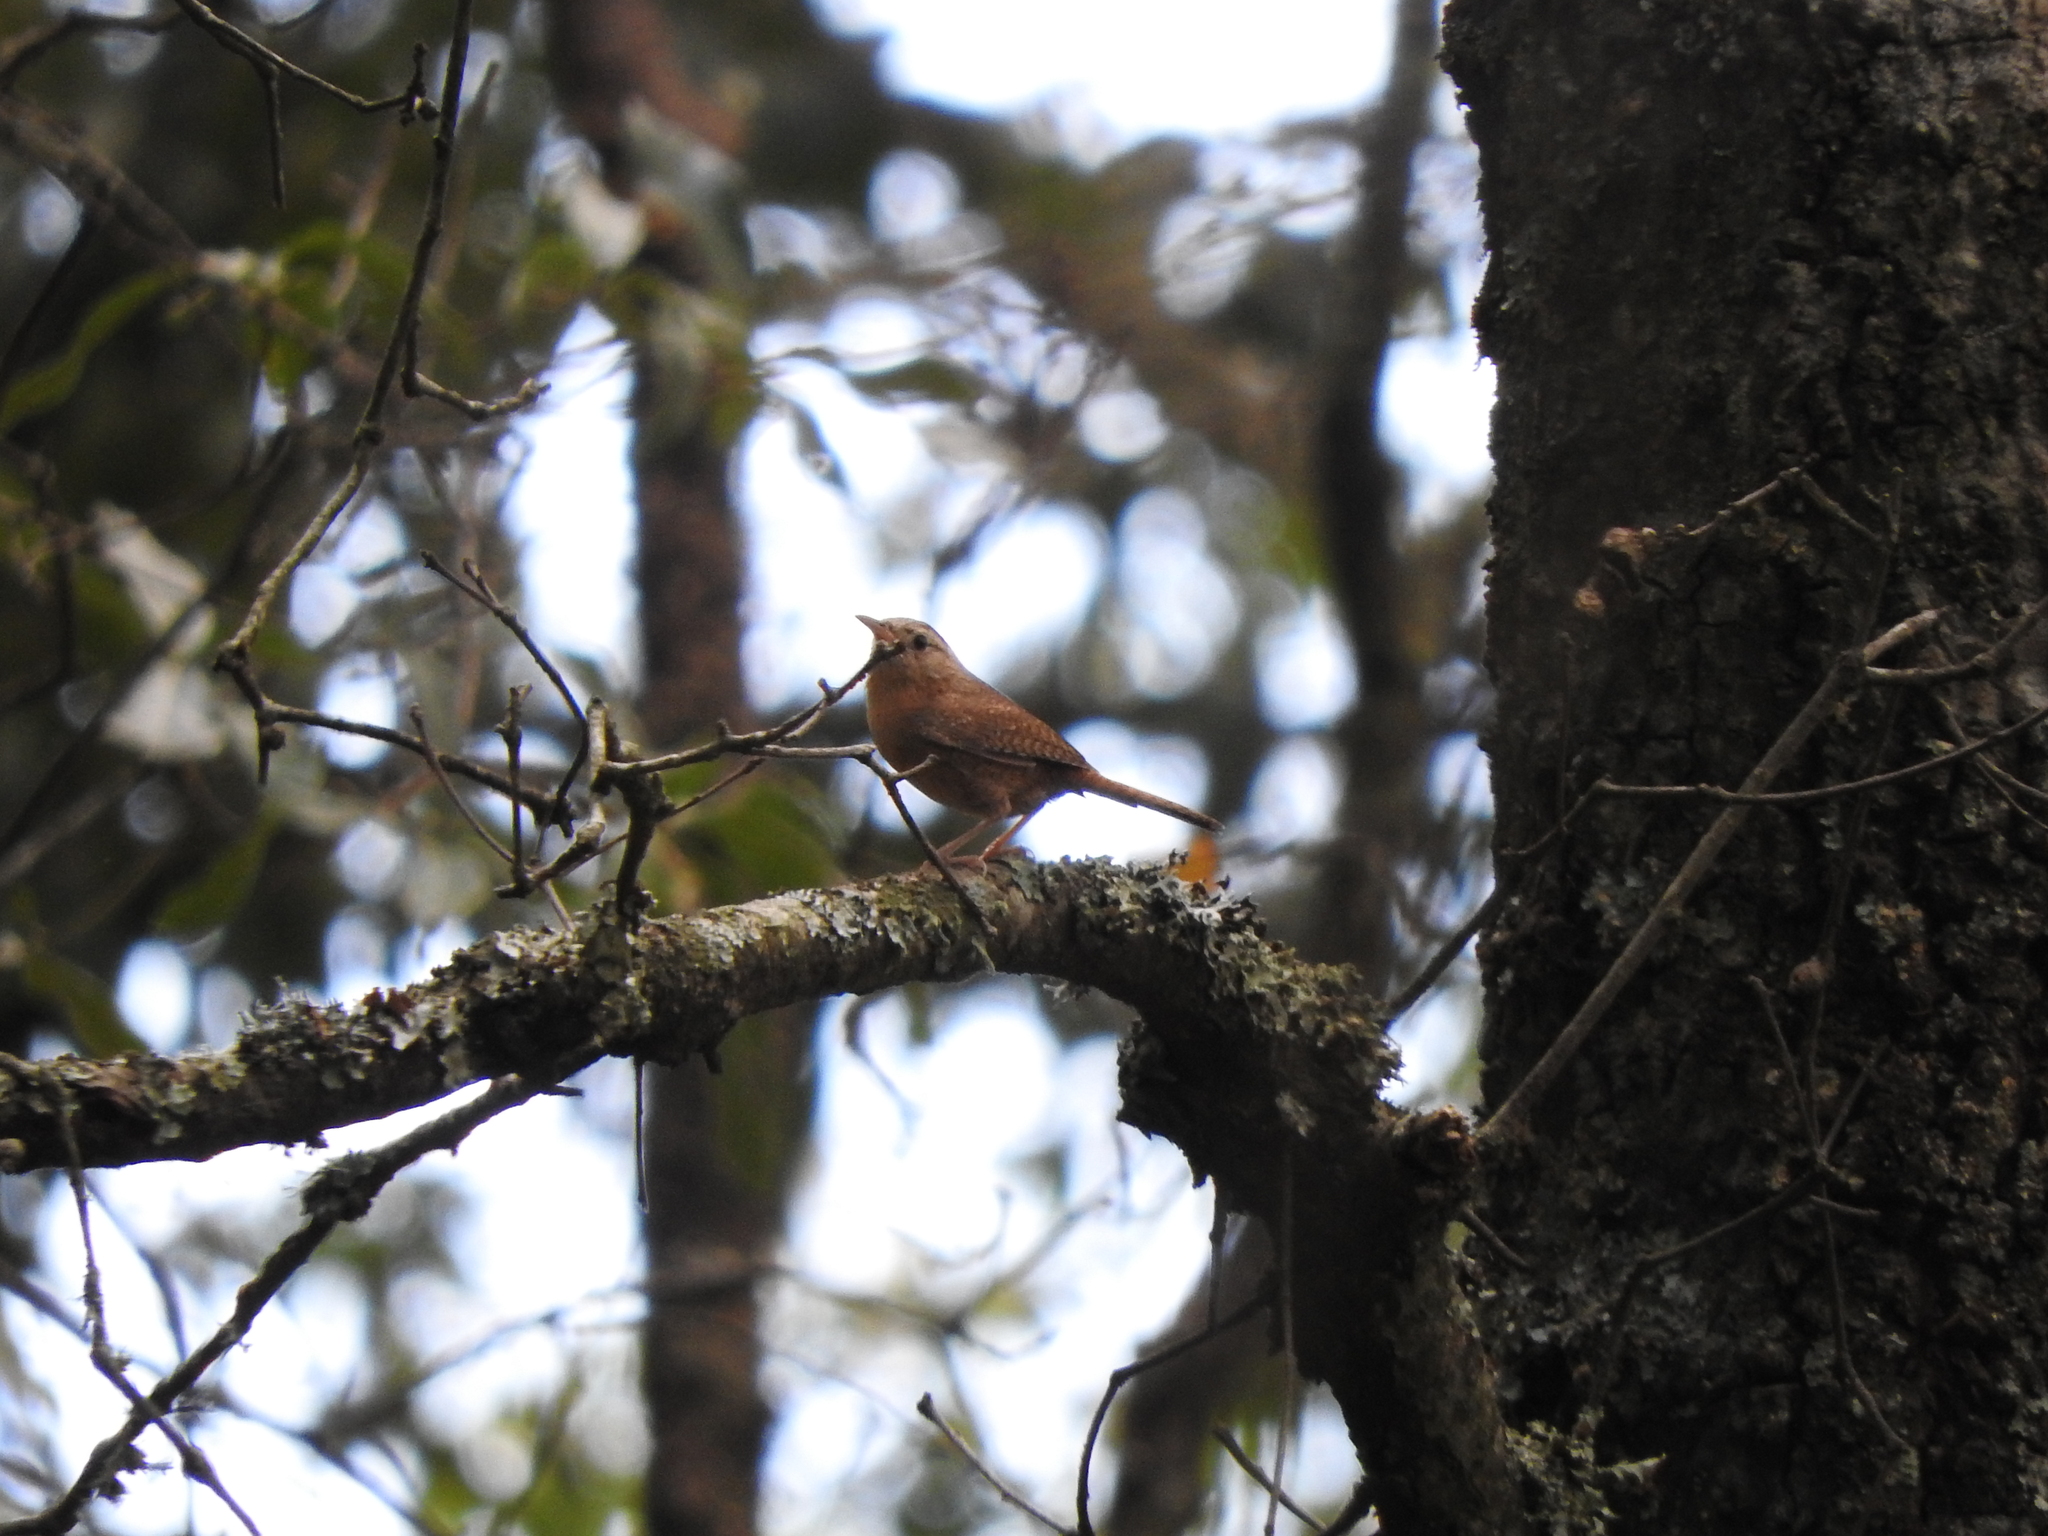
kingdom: Animalia
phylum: Chordata
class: Aves
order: Passeriformes
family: Troglodytidae
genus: Troglodytes
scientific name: Troglodytes aedon
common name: House wren
